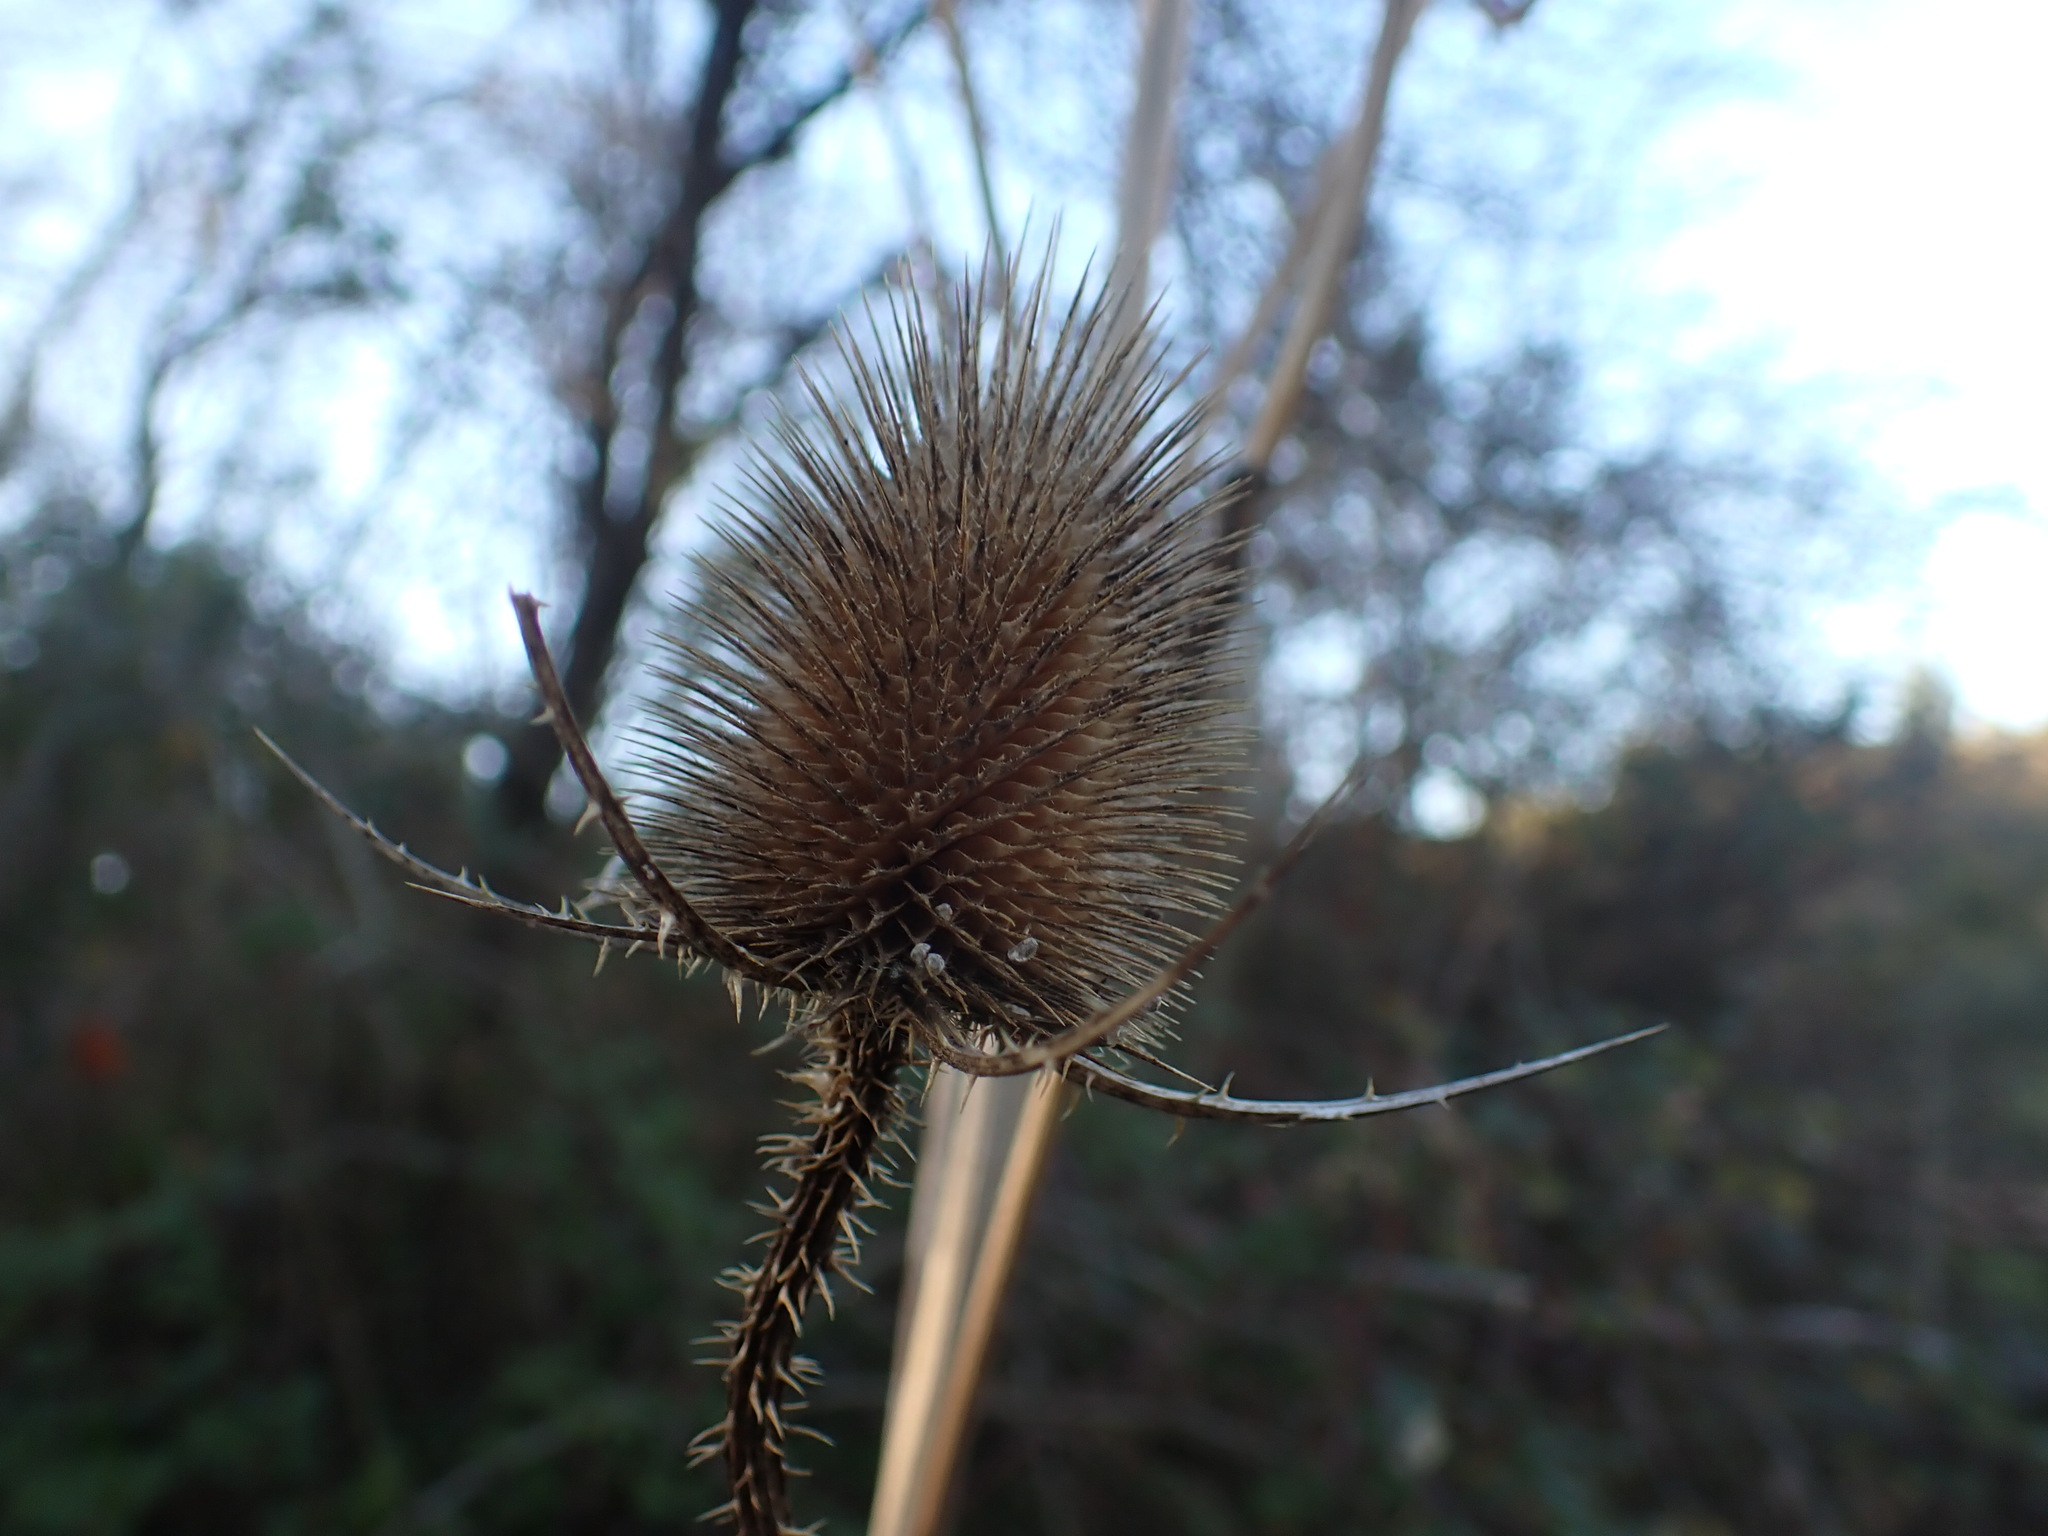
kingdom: Plantae
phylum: Tracheophyta
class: Magnoliopsida
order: Dipsacales
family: Caprifoliaceae
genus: Dipsacus
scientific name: Dipsacus fullonum
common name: Teasel
